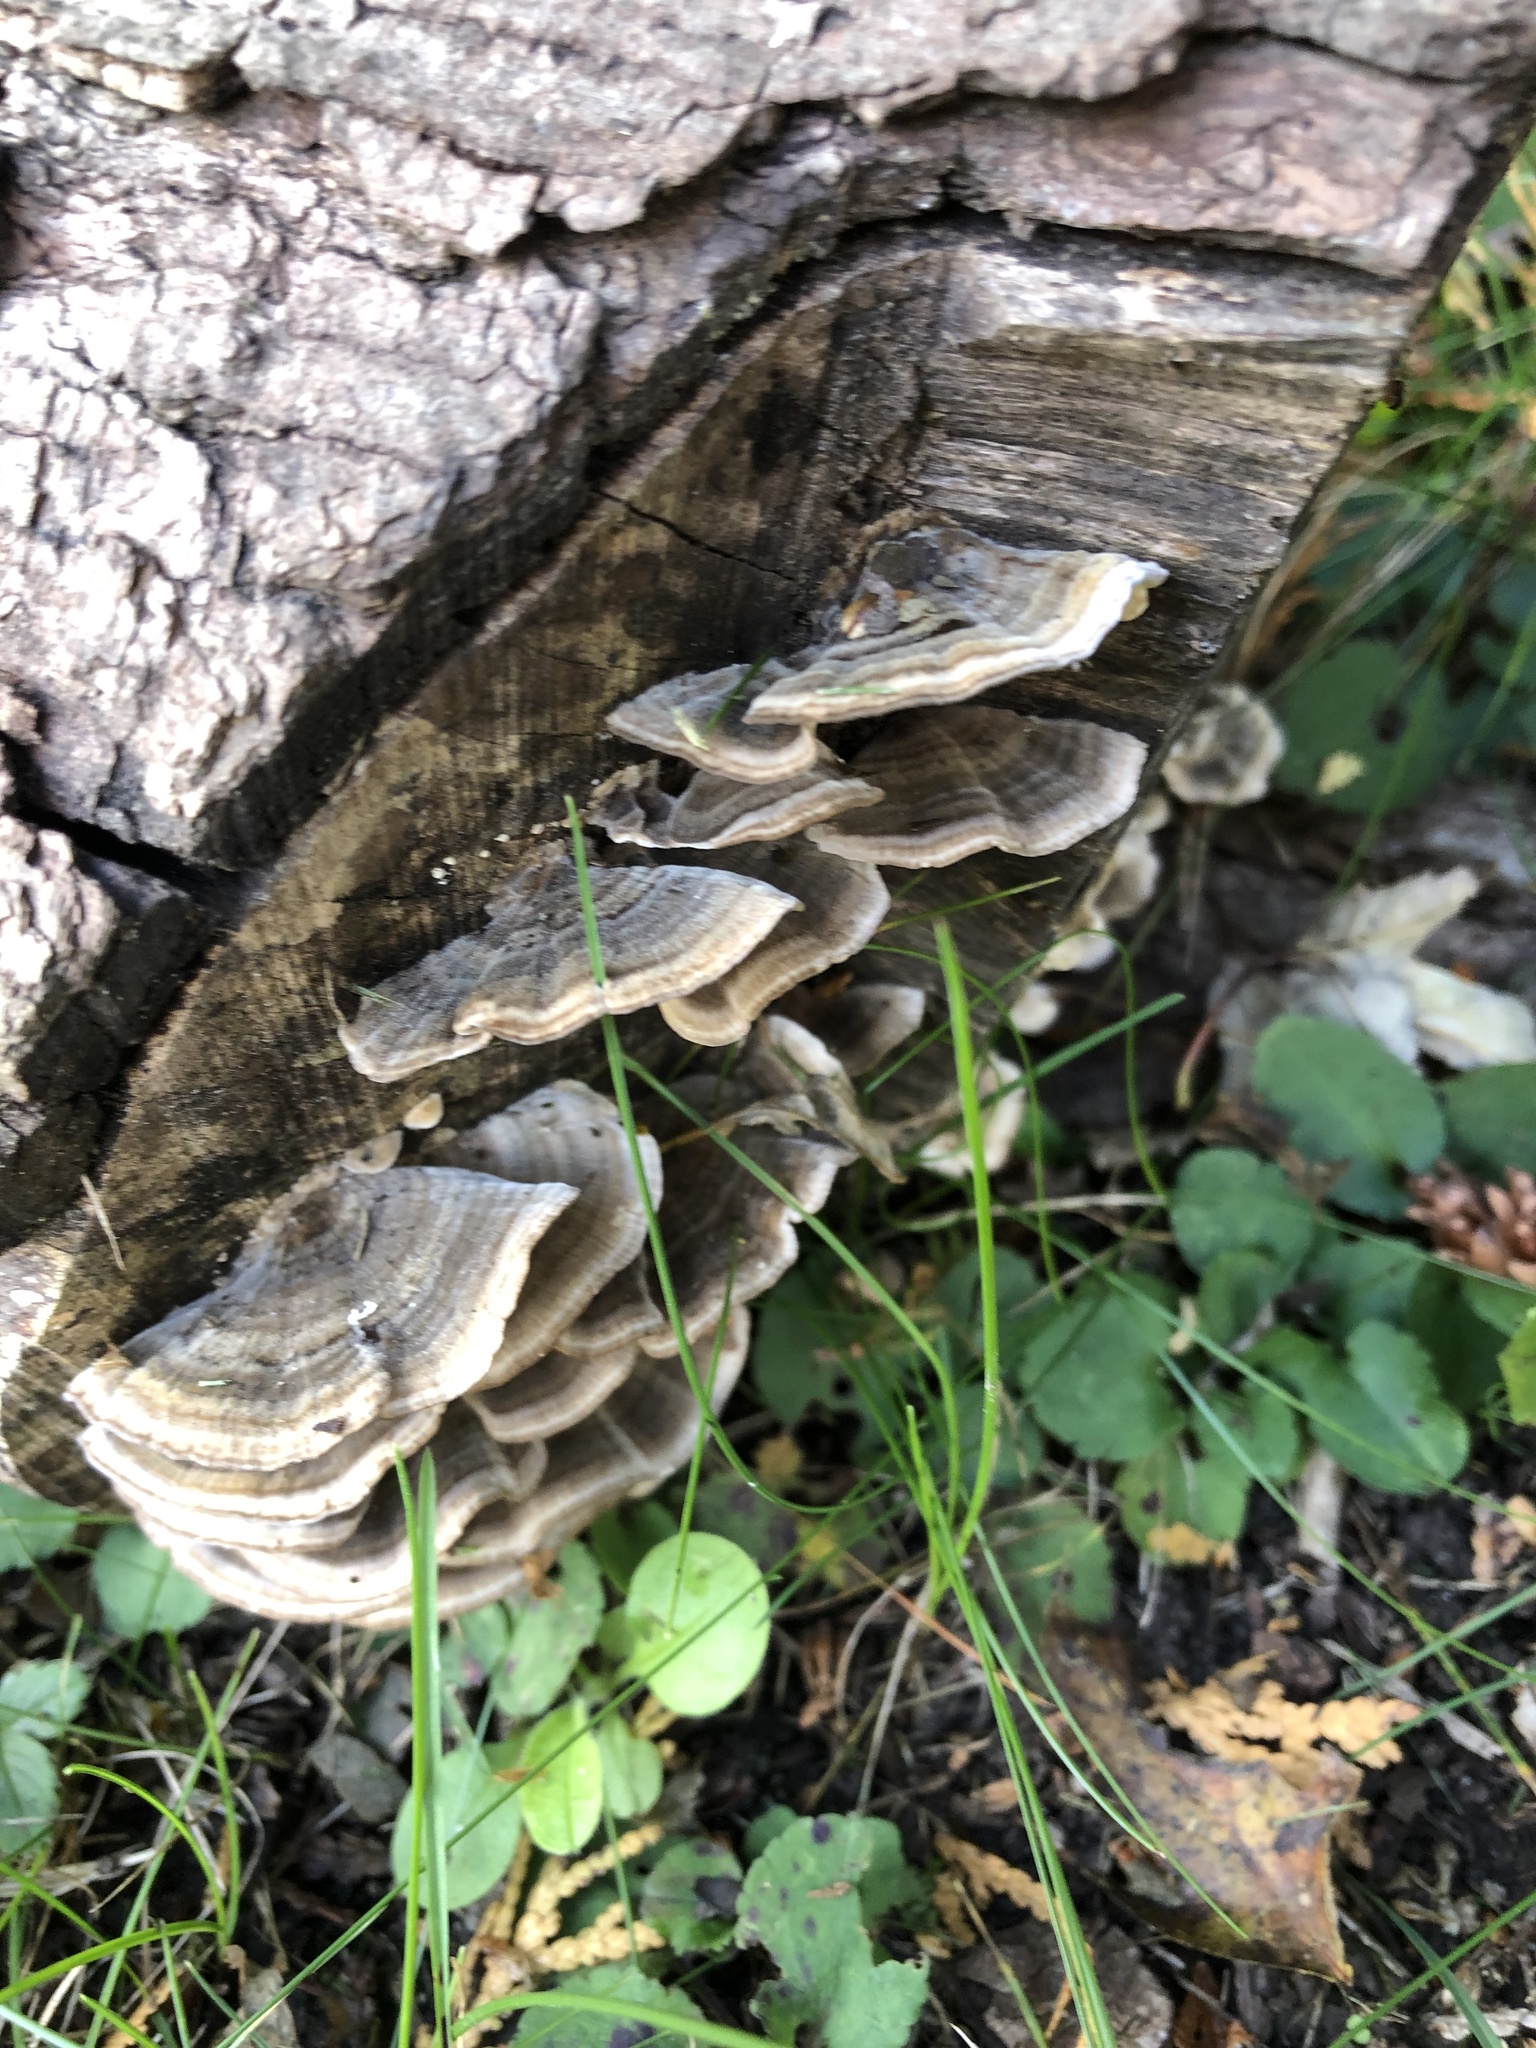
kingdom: Fungi
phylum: Basidiomycota
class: Agaricomycetes
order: Polyporales
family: Polyporaceae
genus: Trametes
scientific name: Trametes versicolor
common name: Turkeytail
